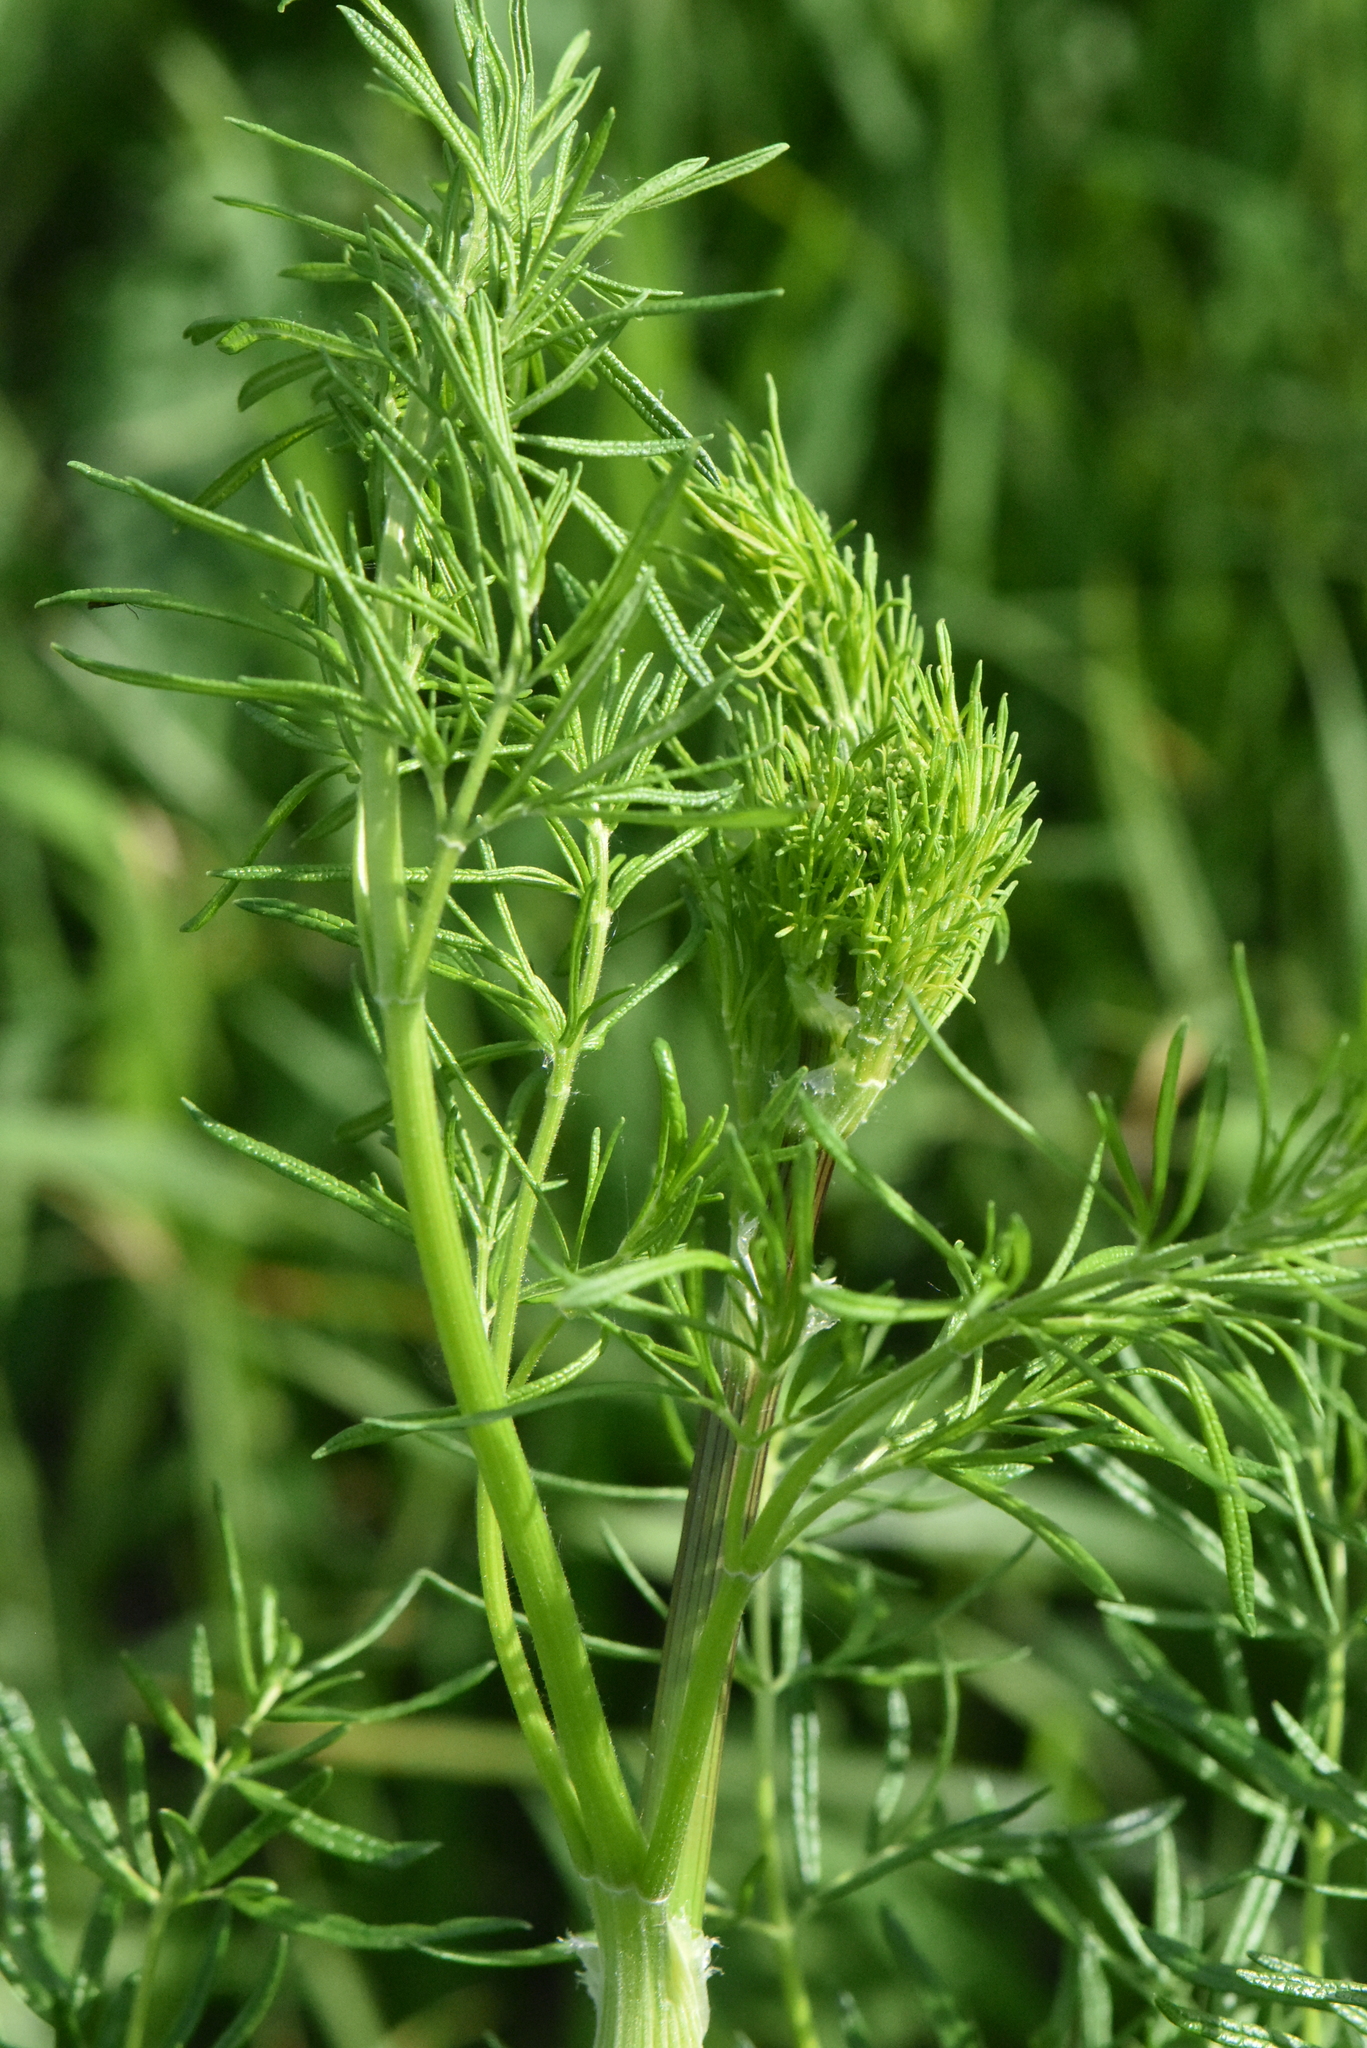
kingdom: Plantae
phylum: Tracheophyta
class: Magnoliopsida
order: Ranunculales
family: Ranunculaceae
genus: Thalictrum
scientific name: Thalictrum lucidum
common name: Shining meadow-rue
